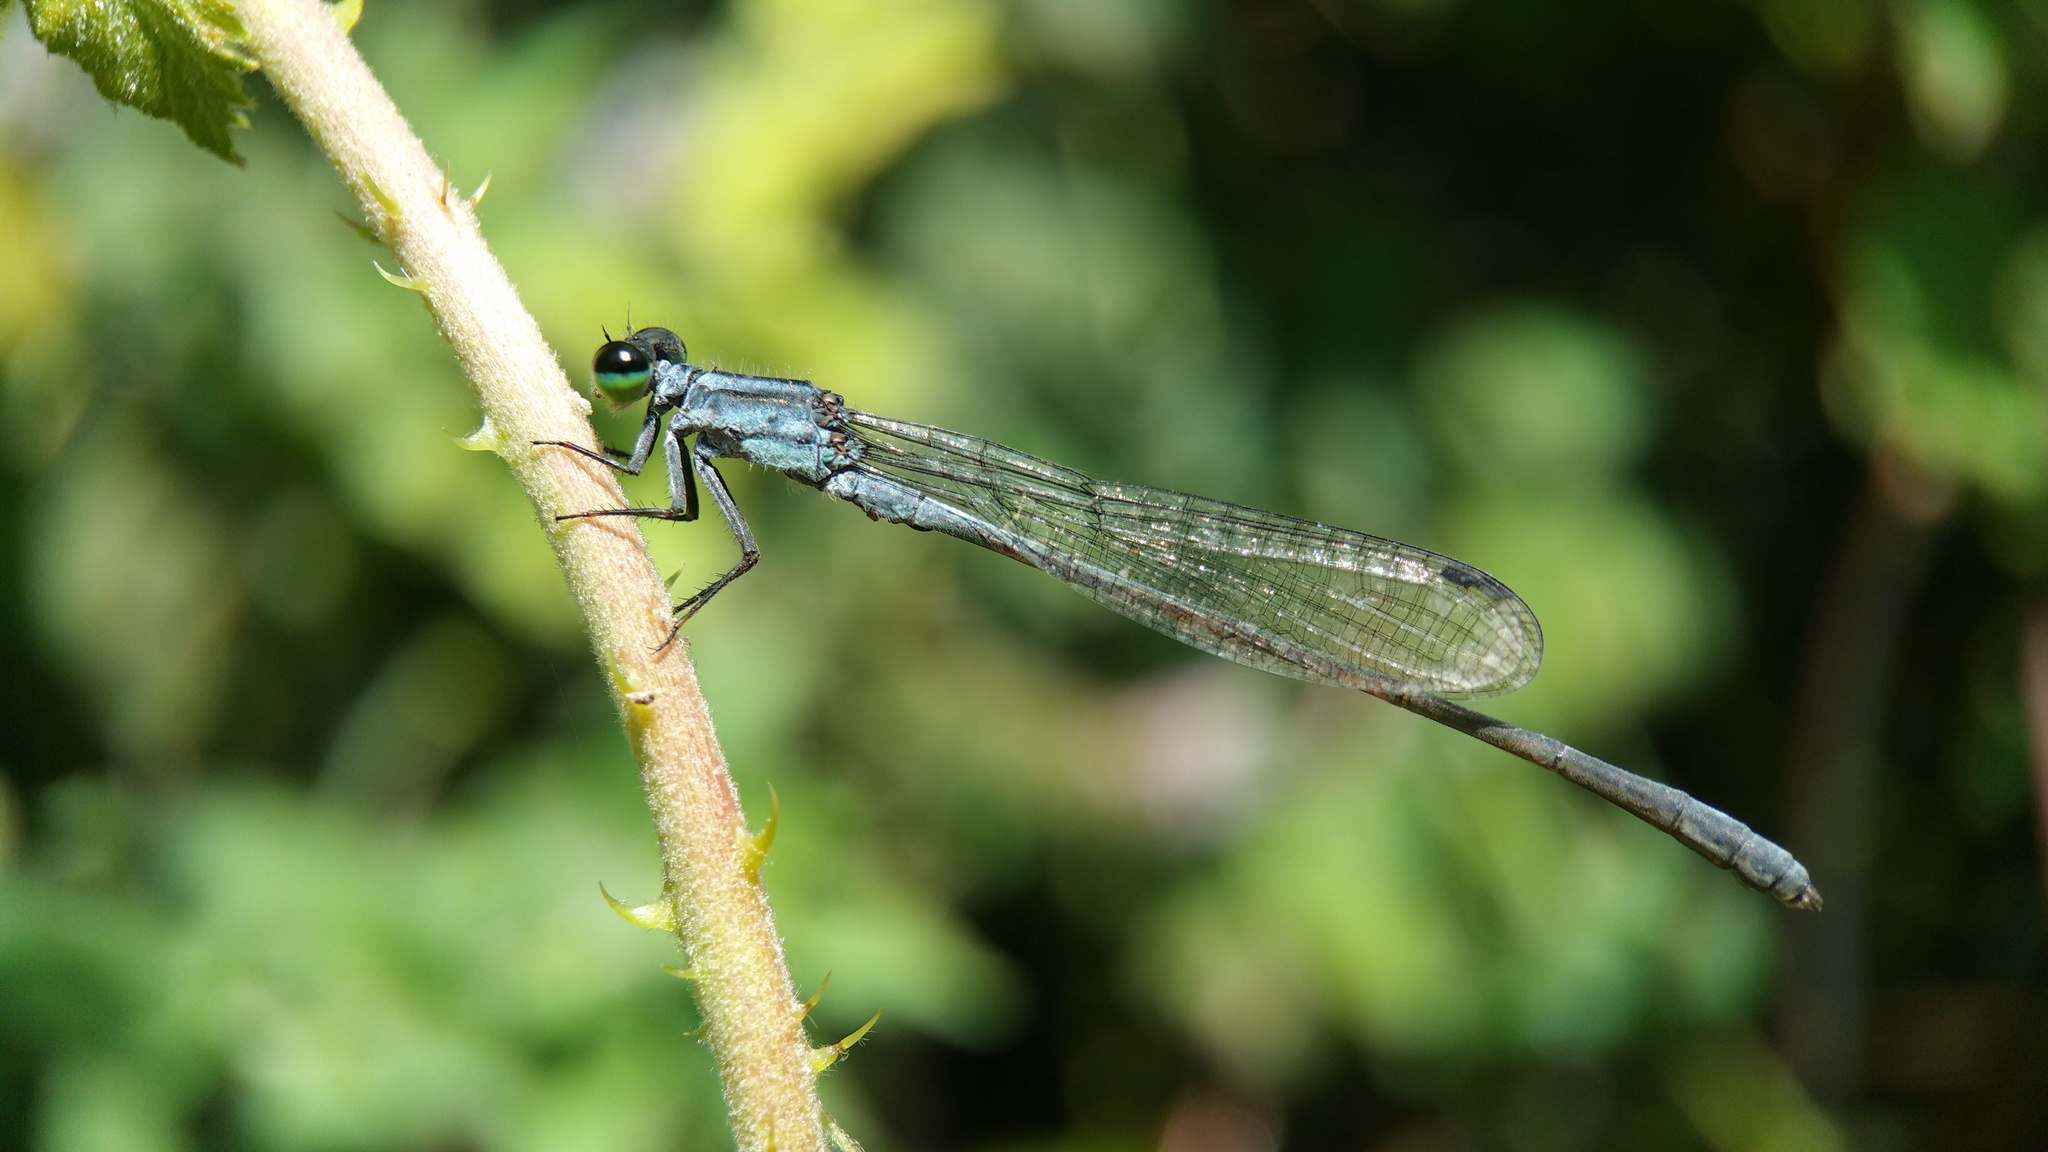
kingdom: Animalia
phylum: Arthropoda
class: Insecta
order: Odonata
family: Coenagrionidae
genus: Pseudagrion
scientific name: Pseudagrion syriacum
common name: Syrian sprite
